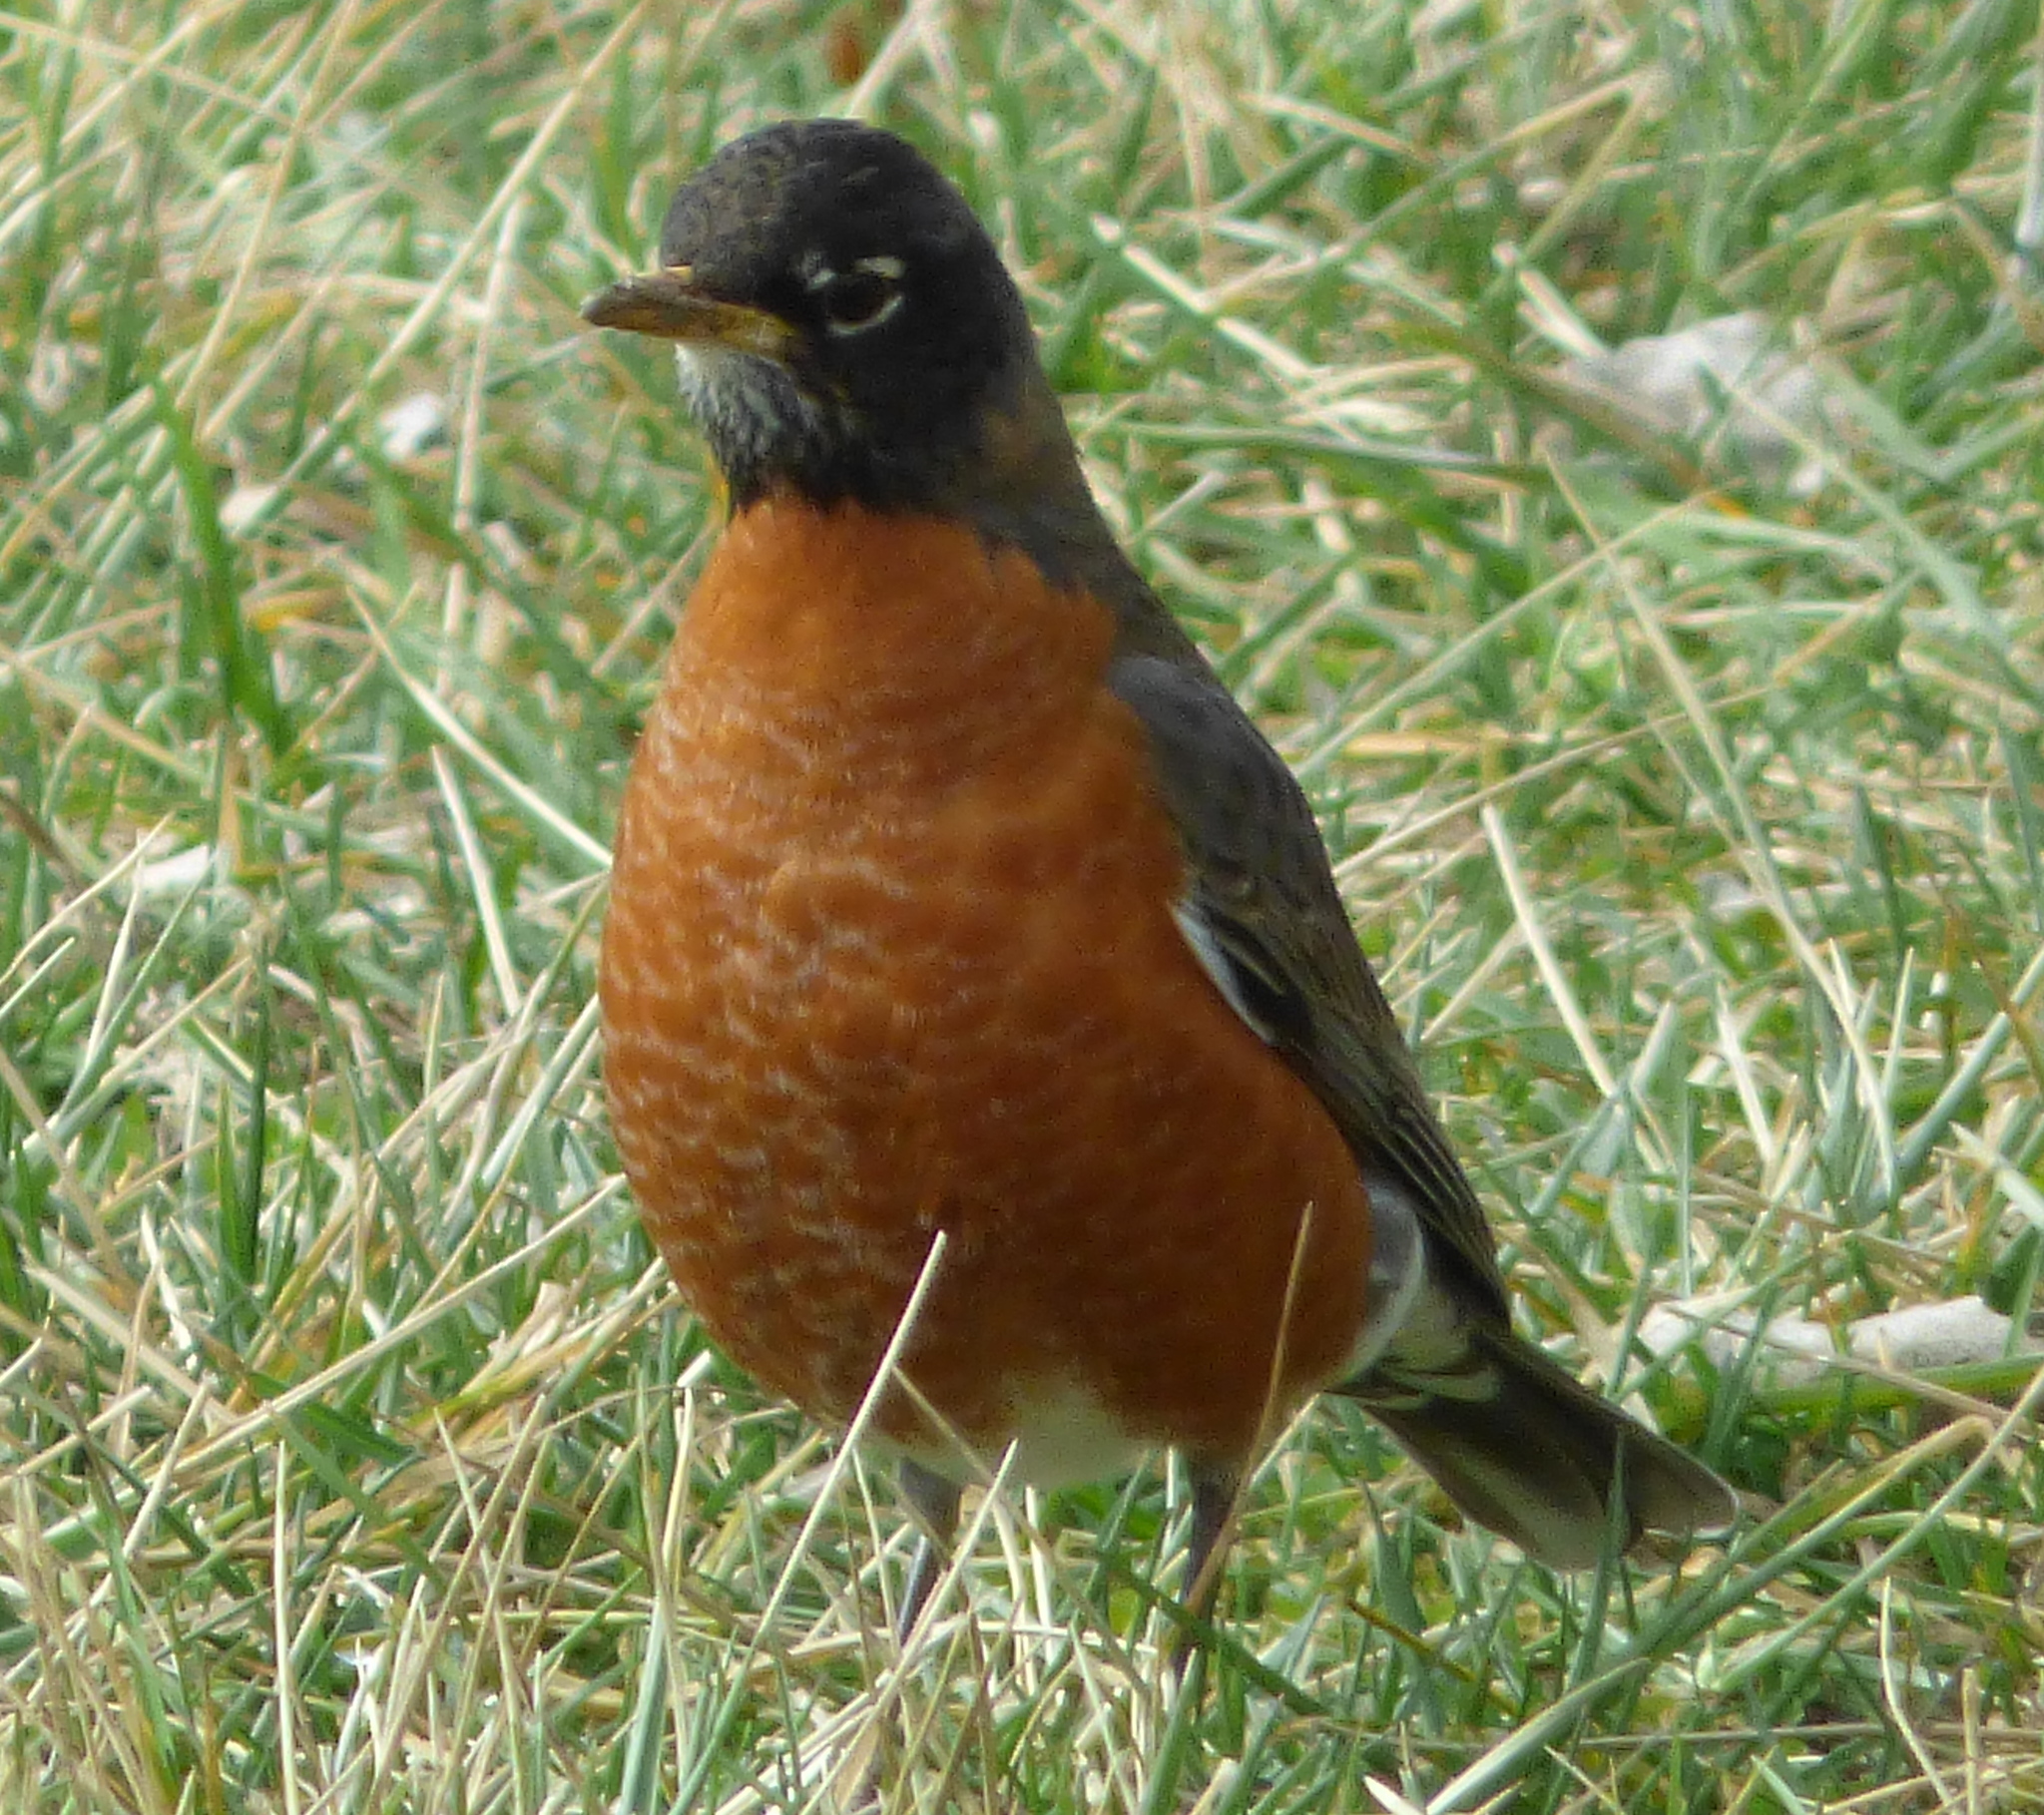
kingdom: Animalia
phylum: Chordata
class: Aves
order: Passeriformes
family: Turdidae
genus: Turdus
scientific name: Turdus migratorius
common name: American robin
